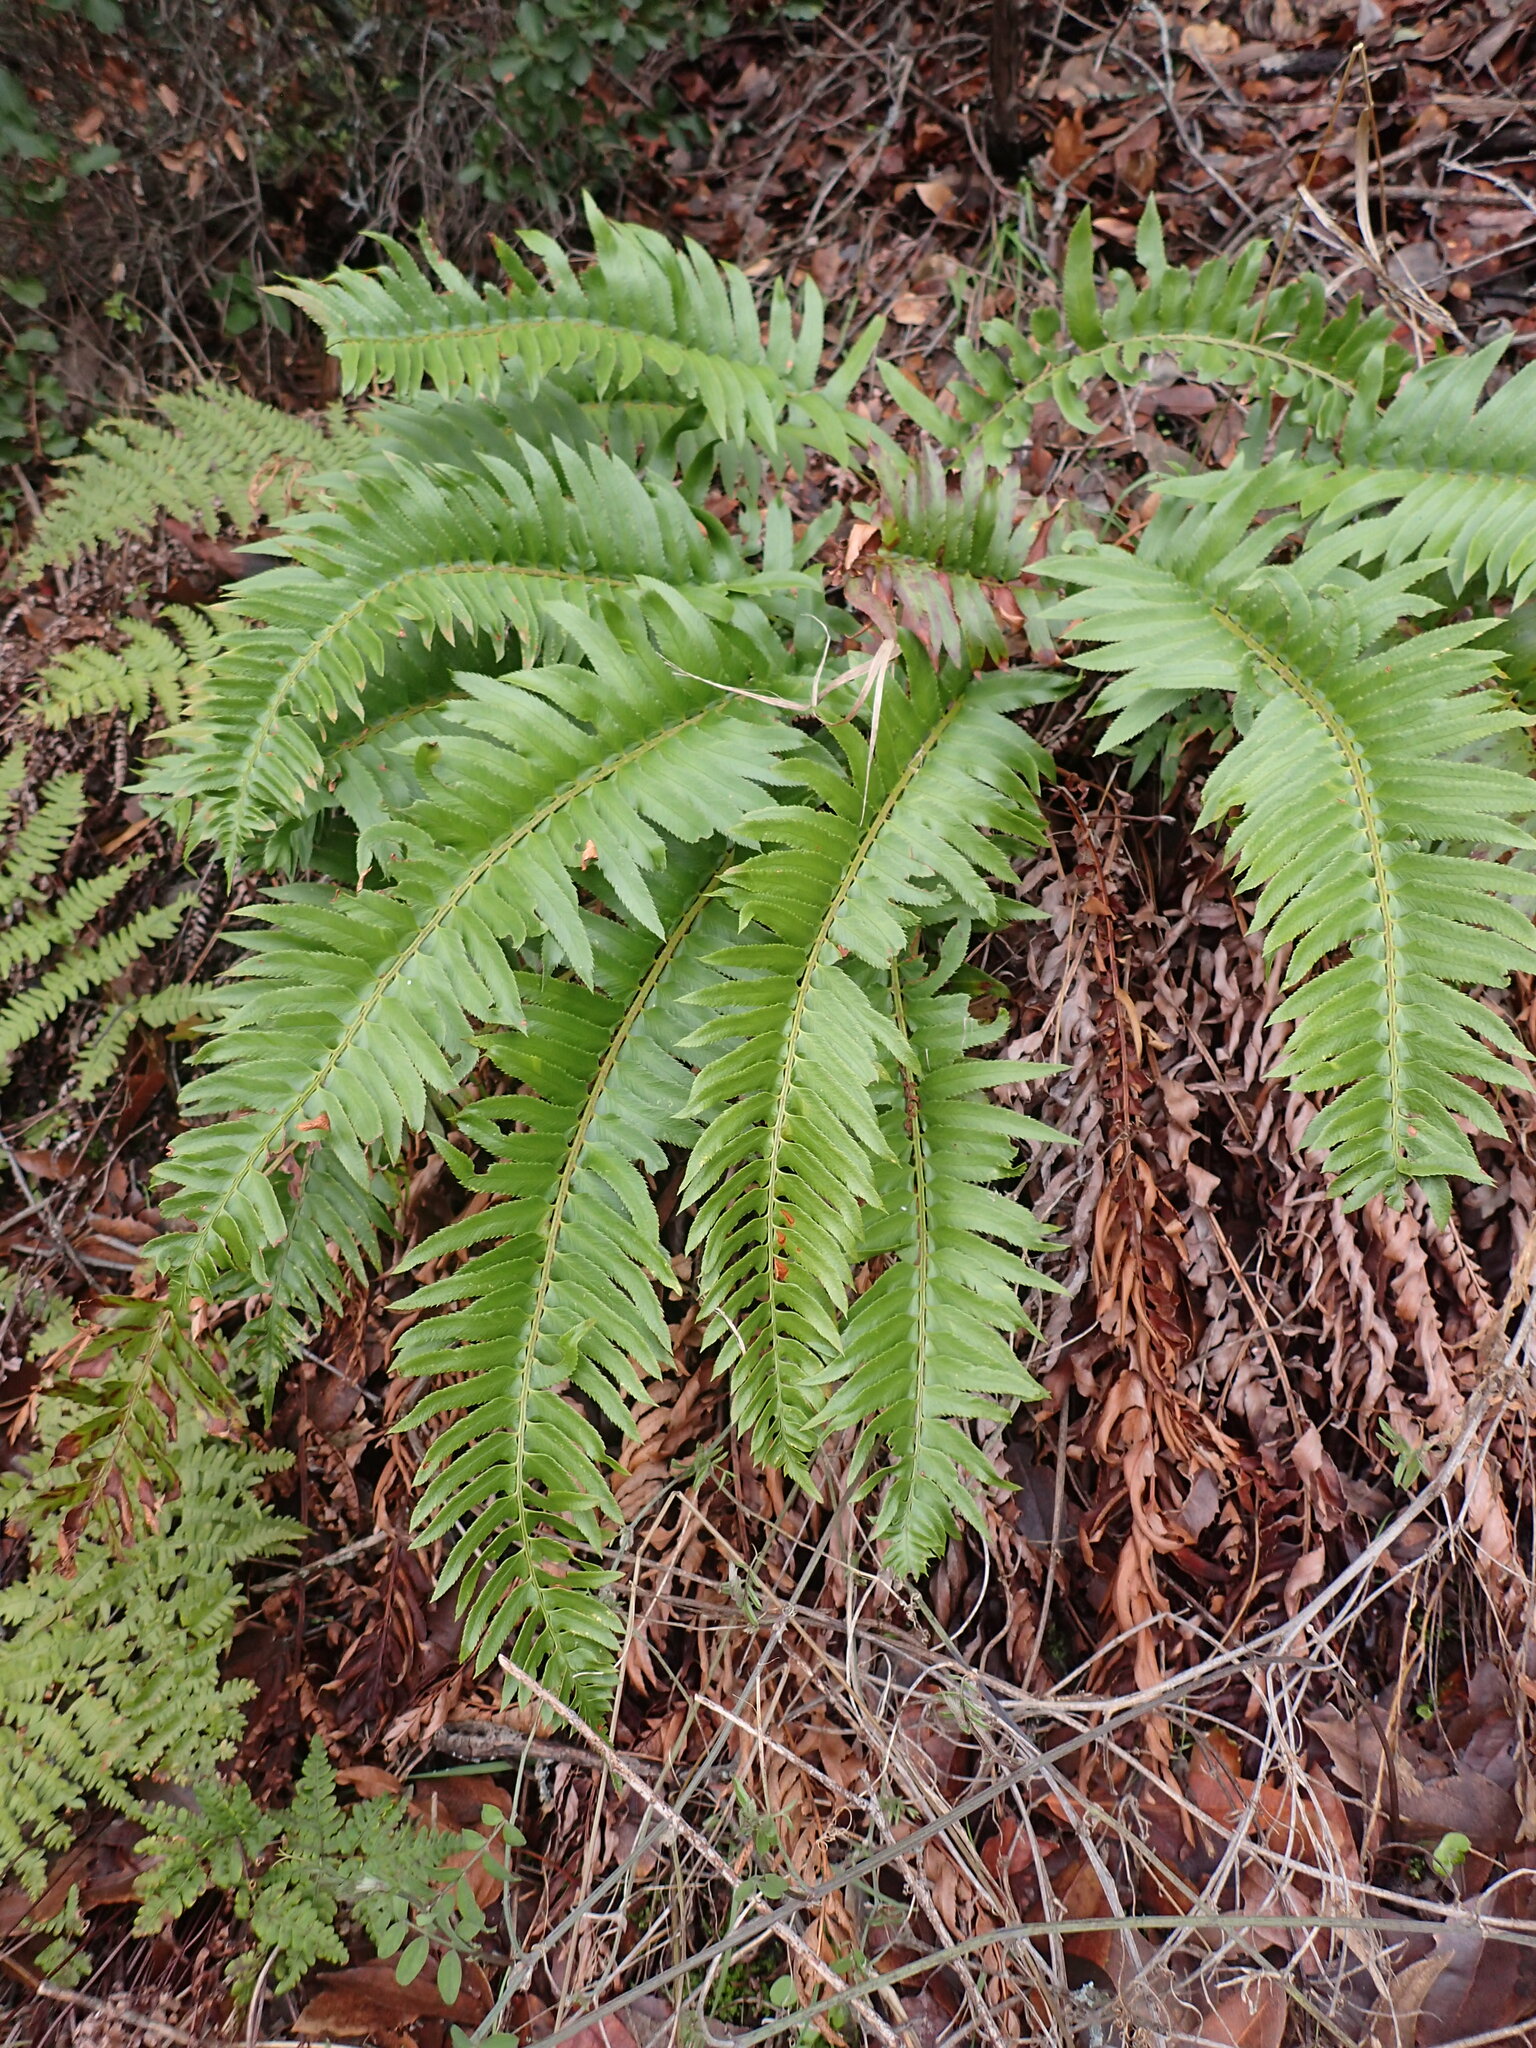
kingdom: Plantae
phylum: Tracheophyta
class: Polypodiopsida
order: Polypodiales
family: Dryopteridaceae
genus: Polystichum
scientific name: Polystichum munitum
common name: Western sword-fern
